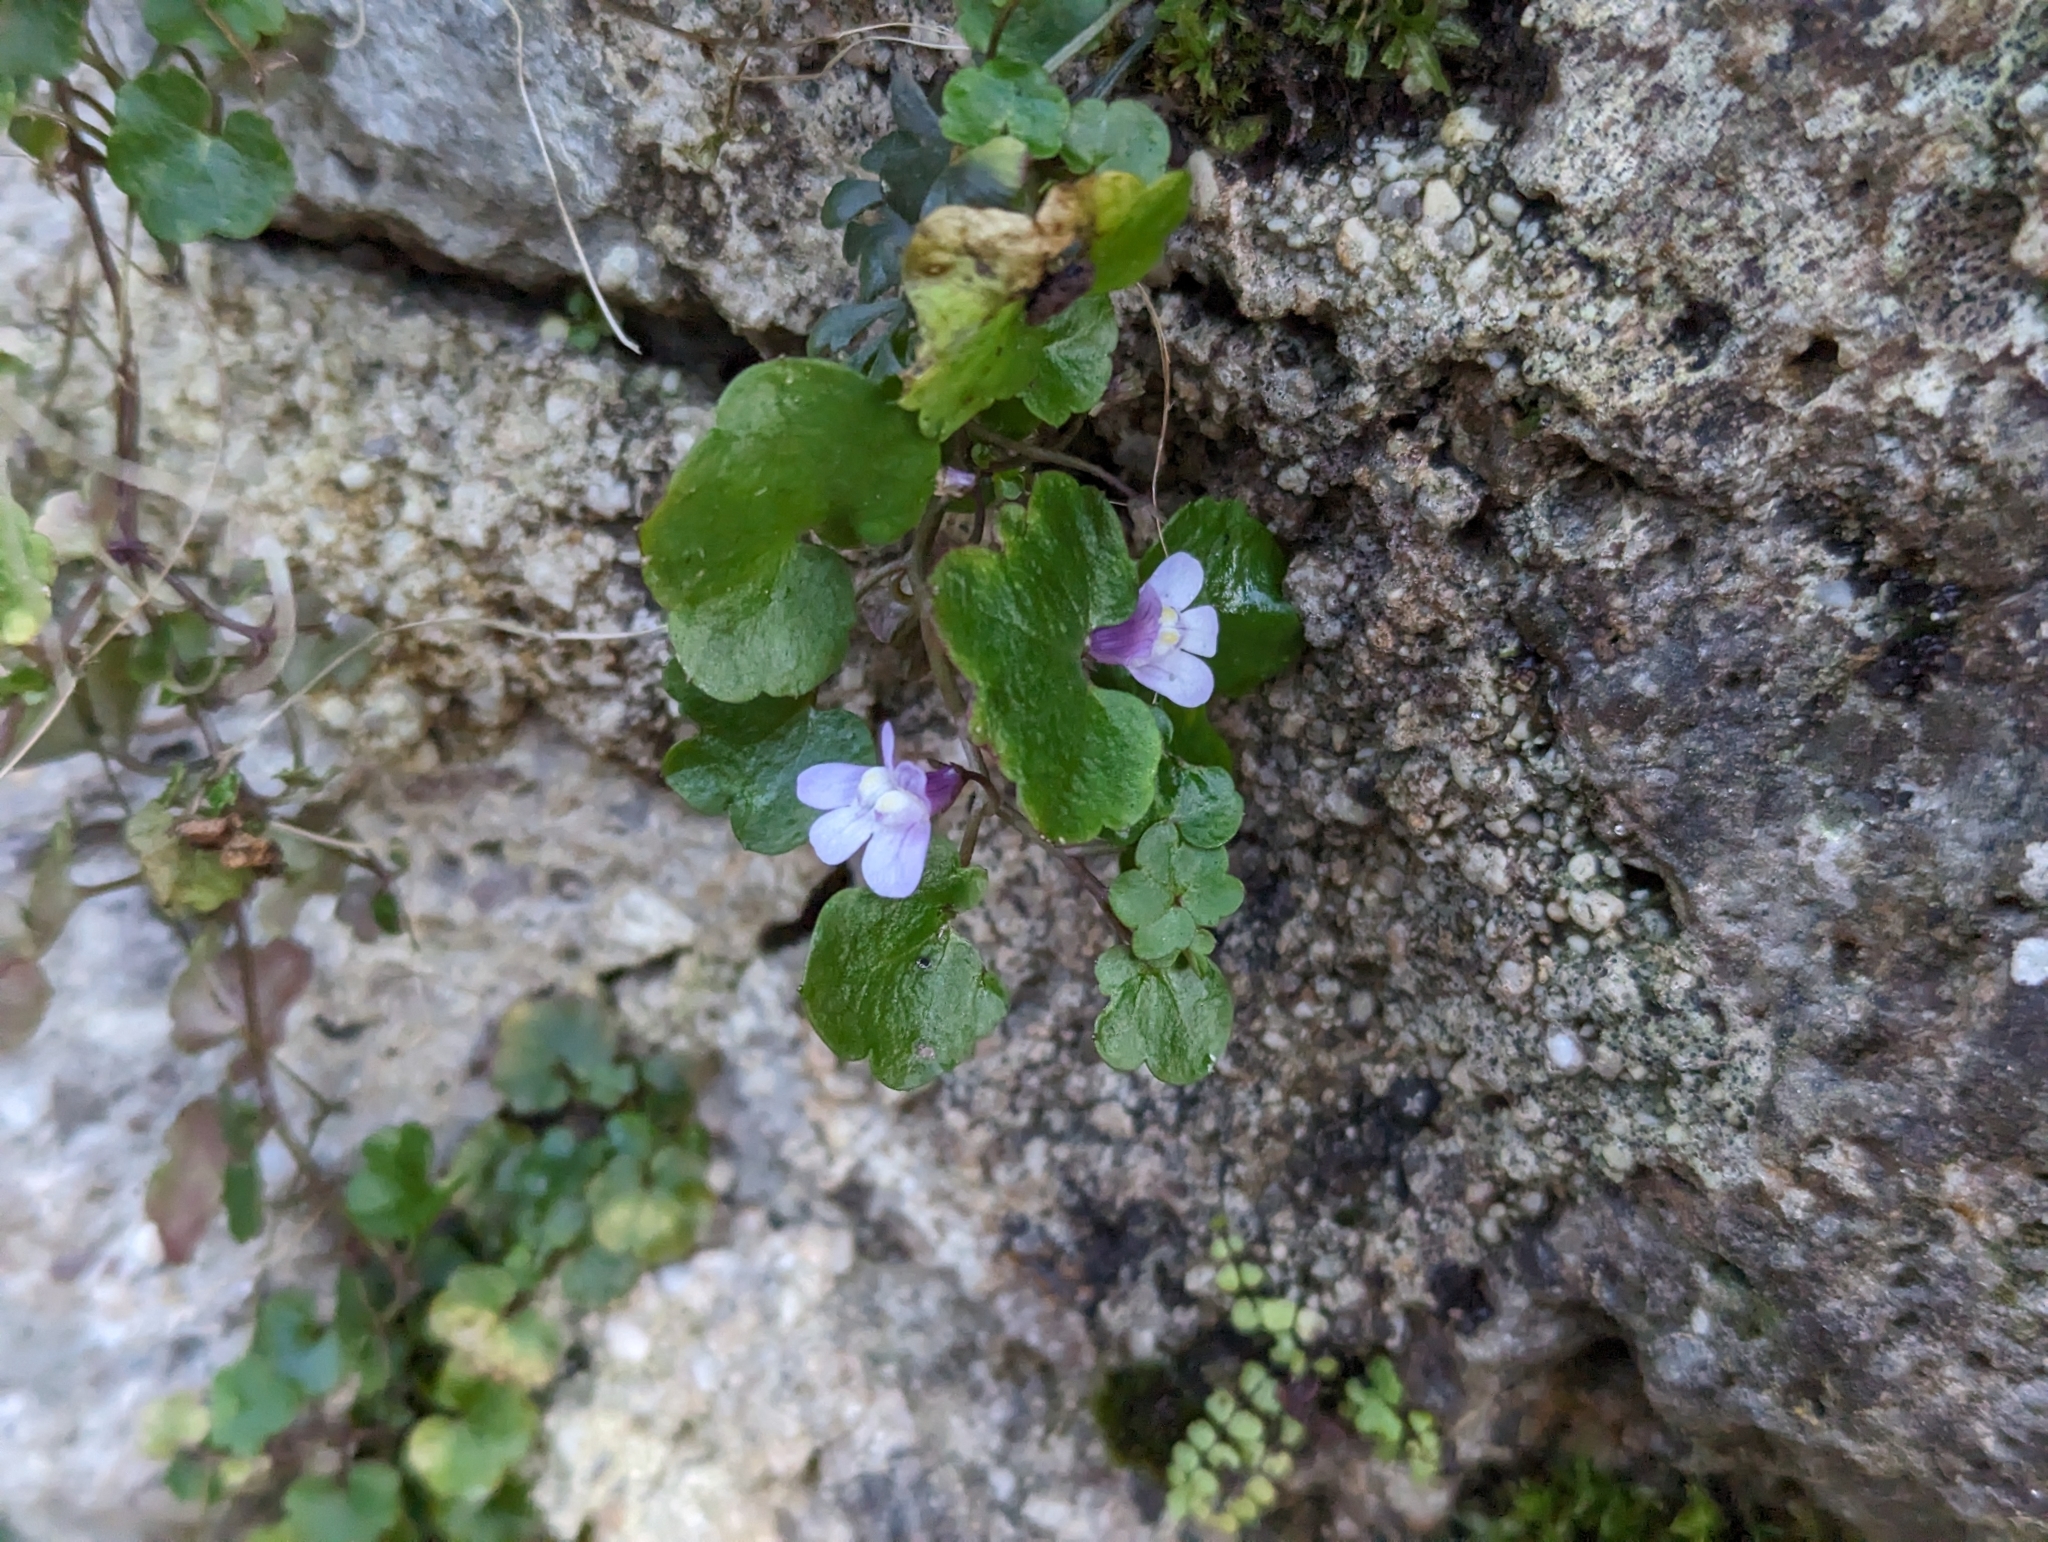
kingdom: Plantae
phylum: Tracheophyta
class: Magnoliopsida
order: Lamiales
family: Plantaginaceae
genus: Cymbalaria
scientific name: Cymbalaria muralis
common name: Ivy-leaved toadflax
